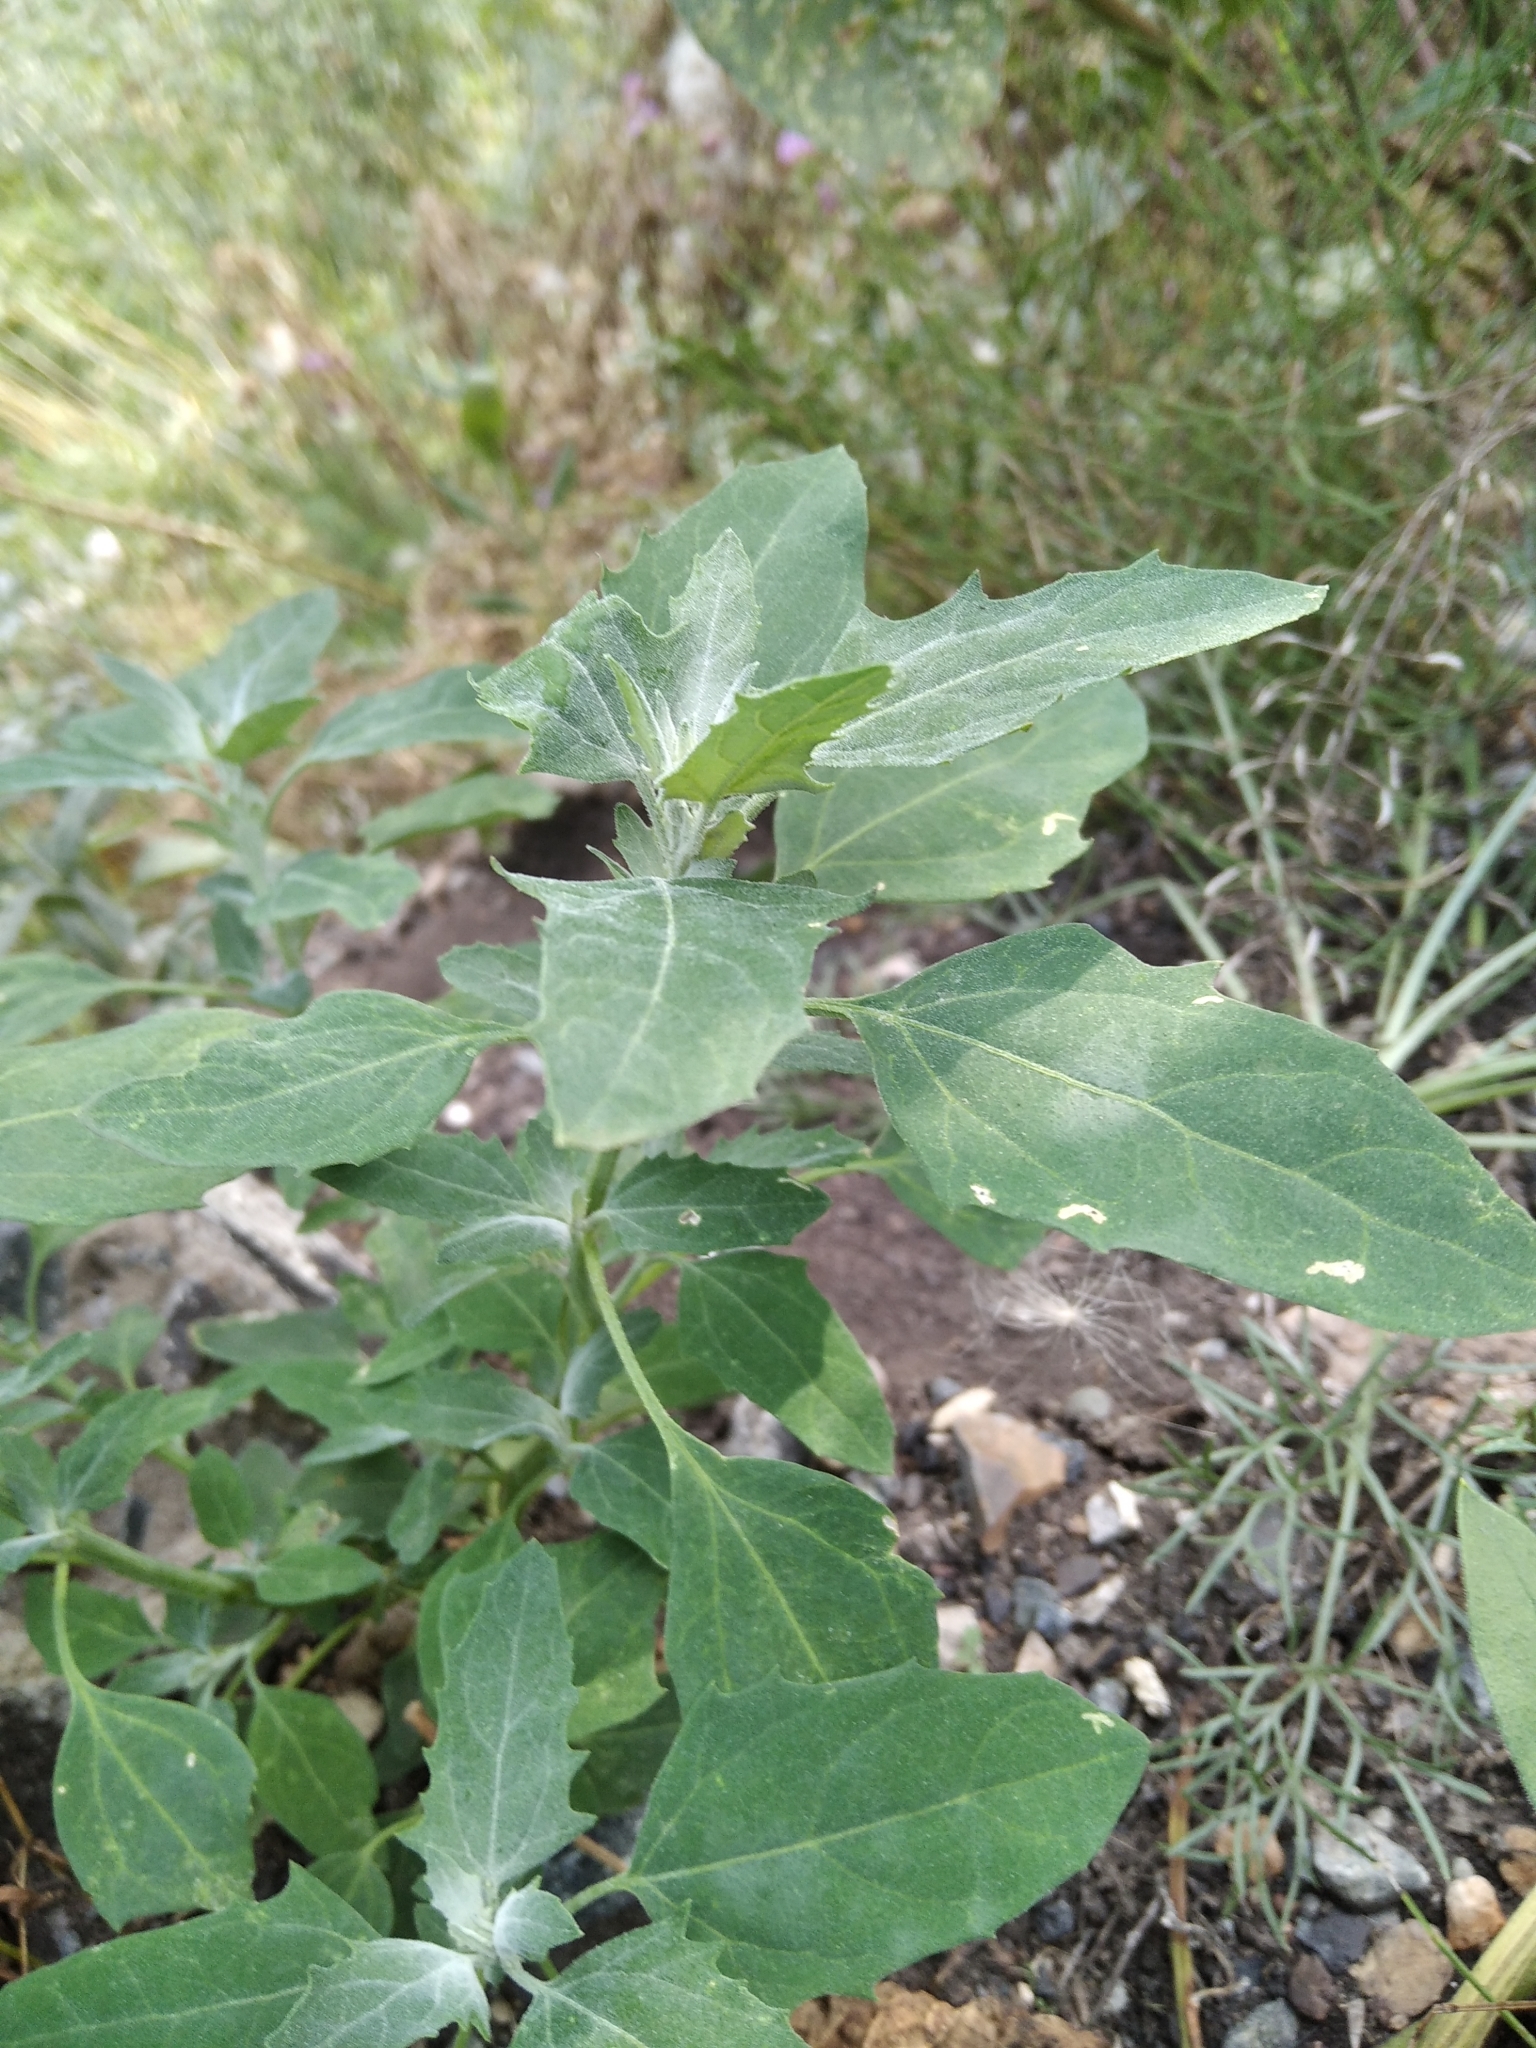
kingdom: Plantae
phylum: Tracheophyta
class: Magnoliopsida
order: Caryophyllales
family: Amaranthaceae
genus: Chenopodium
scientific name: Chenopodium album
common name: Fat-hen
